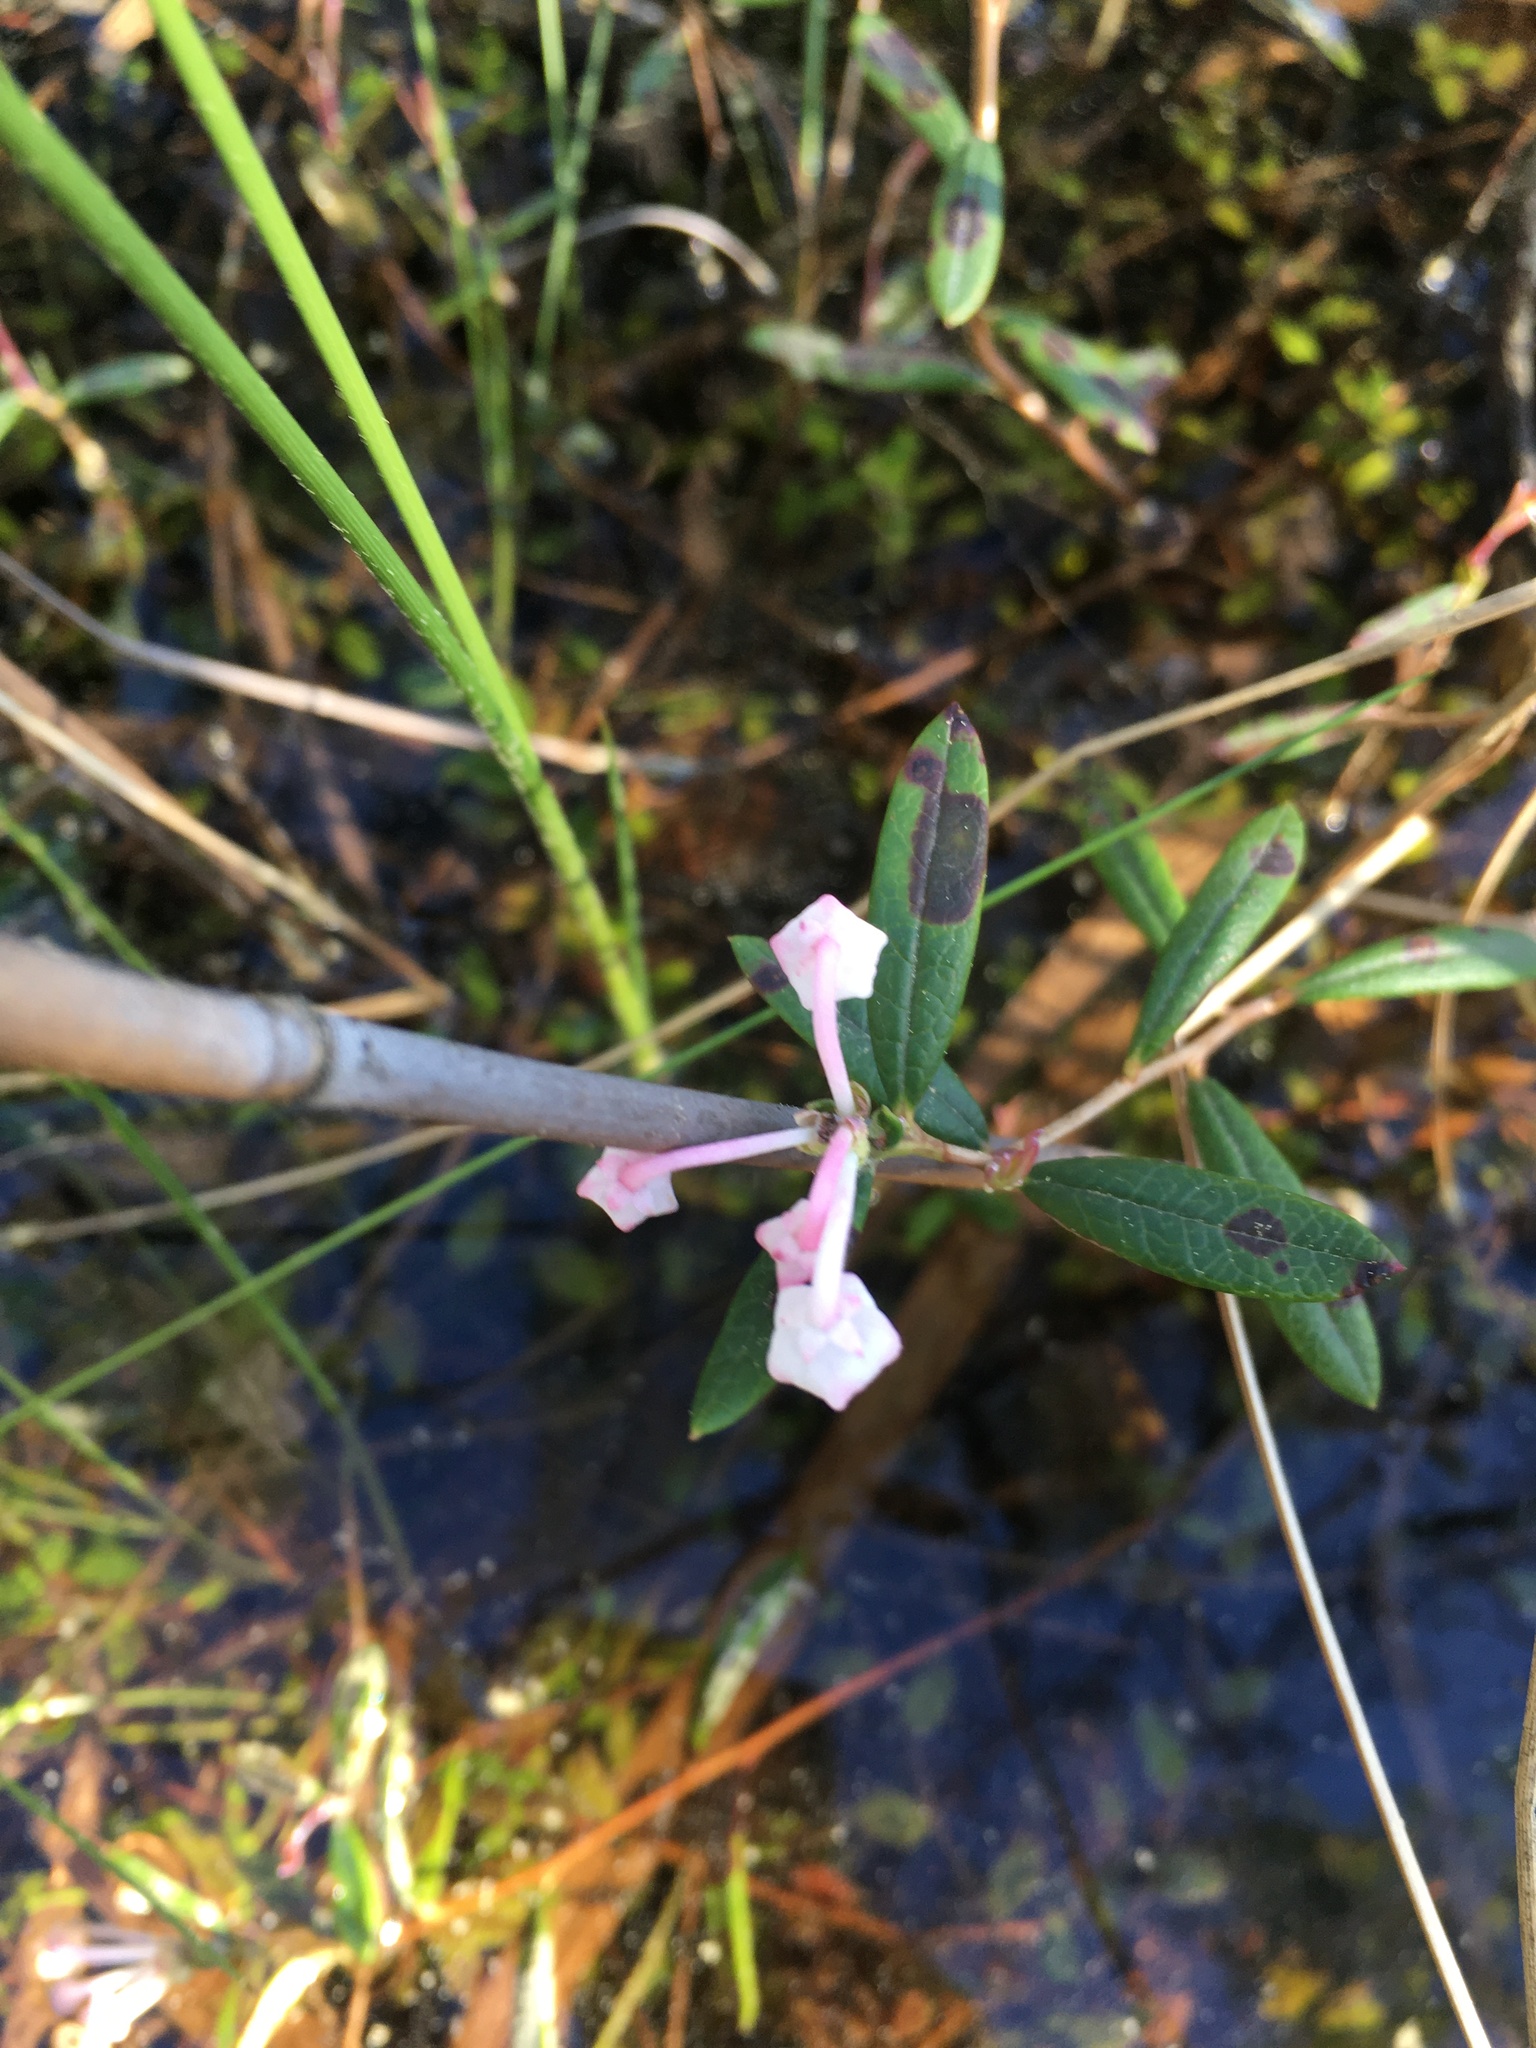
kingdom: Plantae
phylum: Tracheophyta
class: Magnoliopsida
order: Ericales
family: Ericaceae
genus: Andromeda
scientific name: Andromeda polifolia
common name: Bog-rosemary
